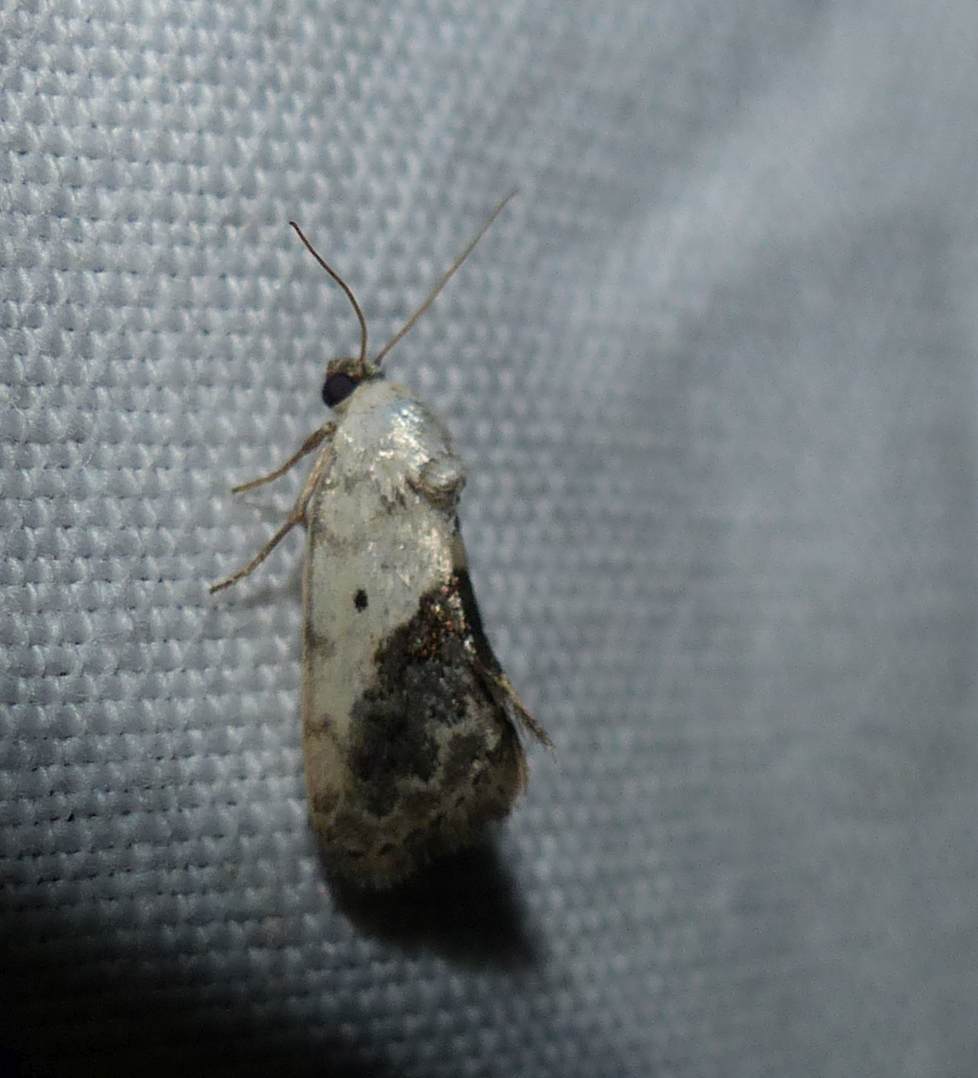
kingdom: Animalia
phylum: Arthropoda
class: Insecta
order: Lepidoptera
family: Noctuidae
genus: Acontia
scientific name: Acontia erastrioides
